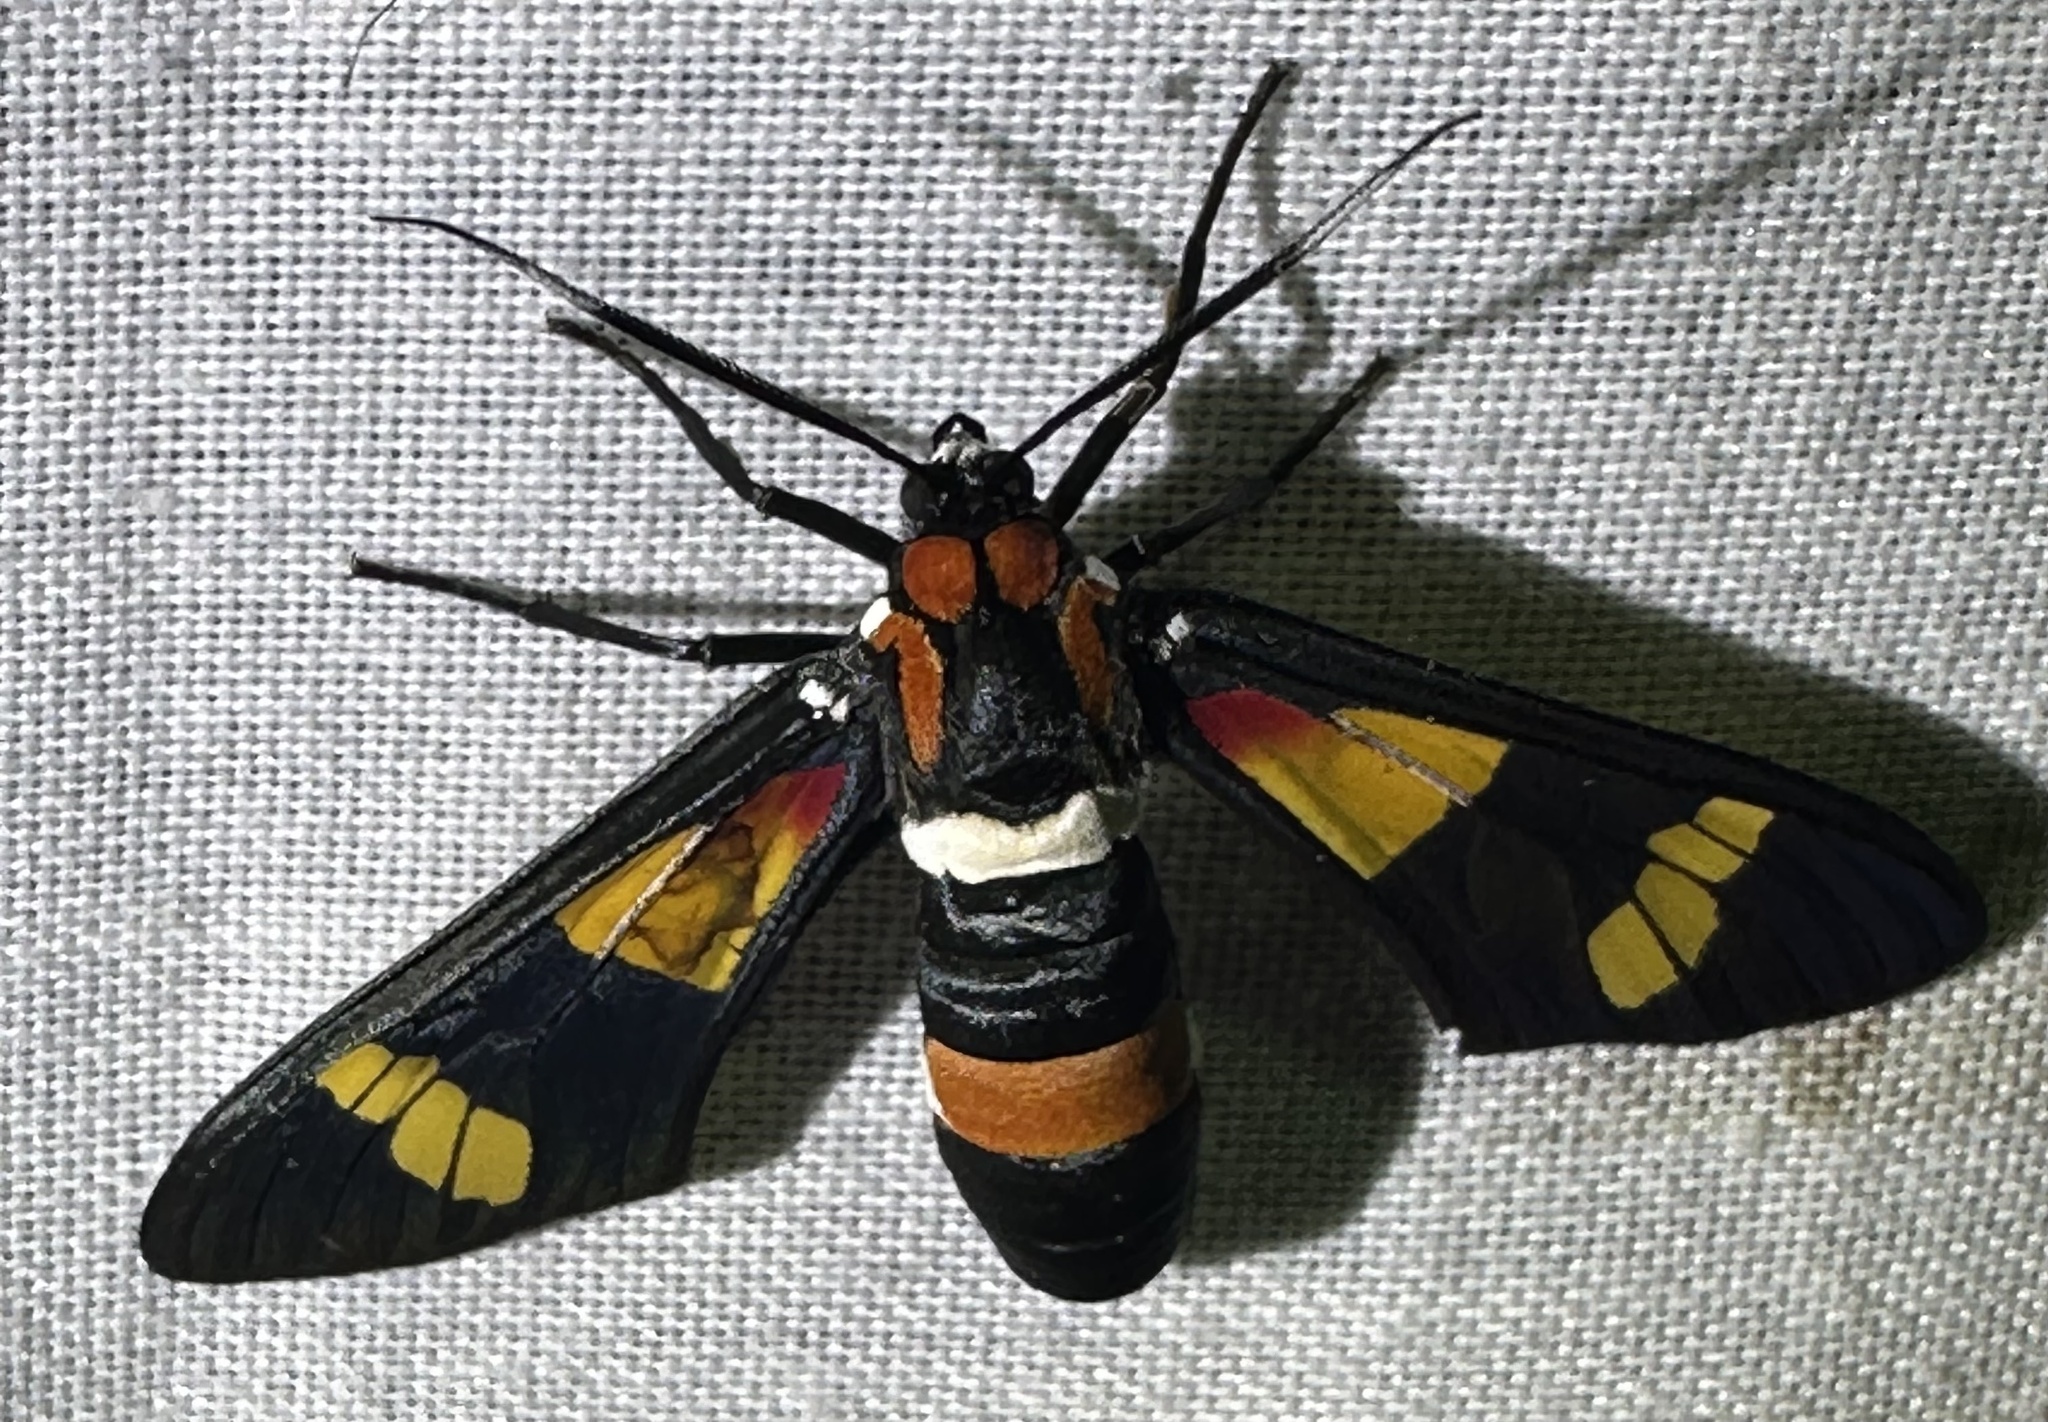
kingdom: Animalia
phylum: Arthropoda
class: Insecta
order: Lepidoptera
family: Erebidae
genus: Euchromia
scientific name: Euchromia amoena
